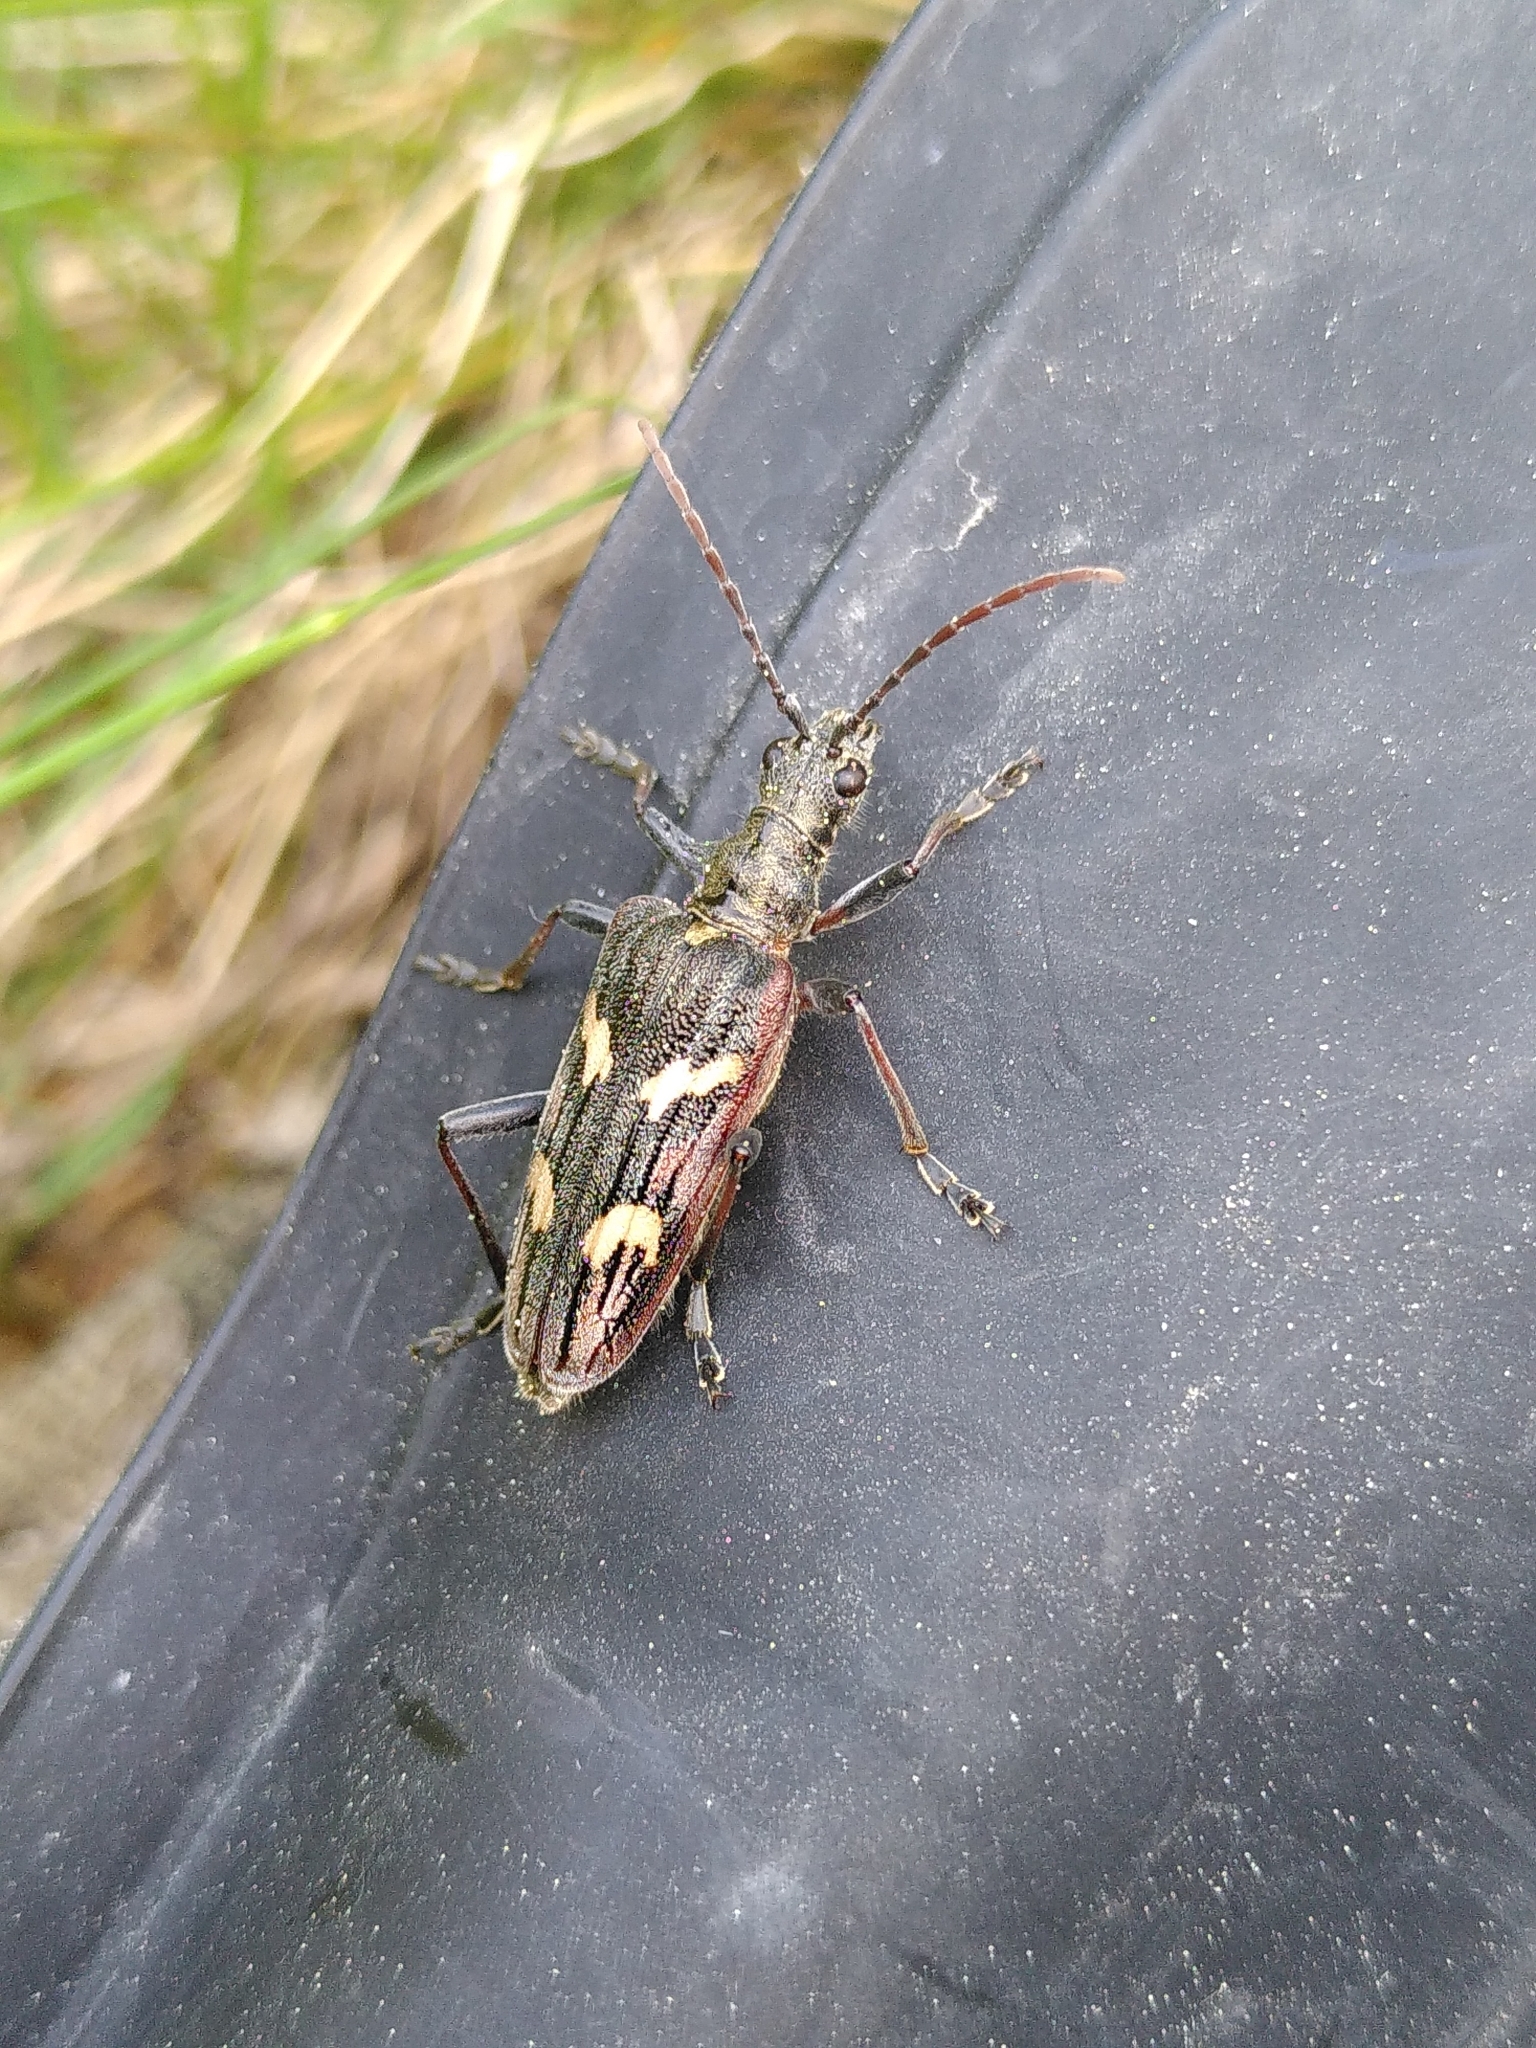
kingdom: Animalia
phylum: Arthropoda
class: Insecta
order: Coleoptera
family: Cerambycidae
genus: Rhagium
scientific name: Rhagium bifasciatum
